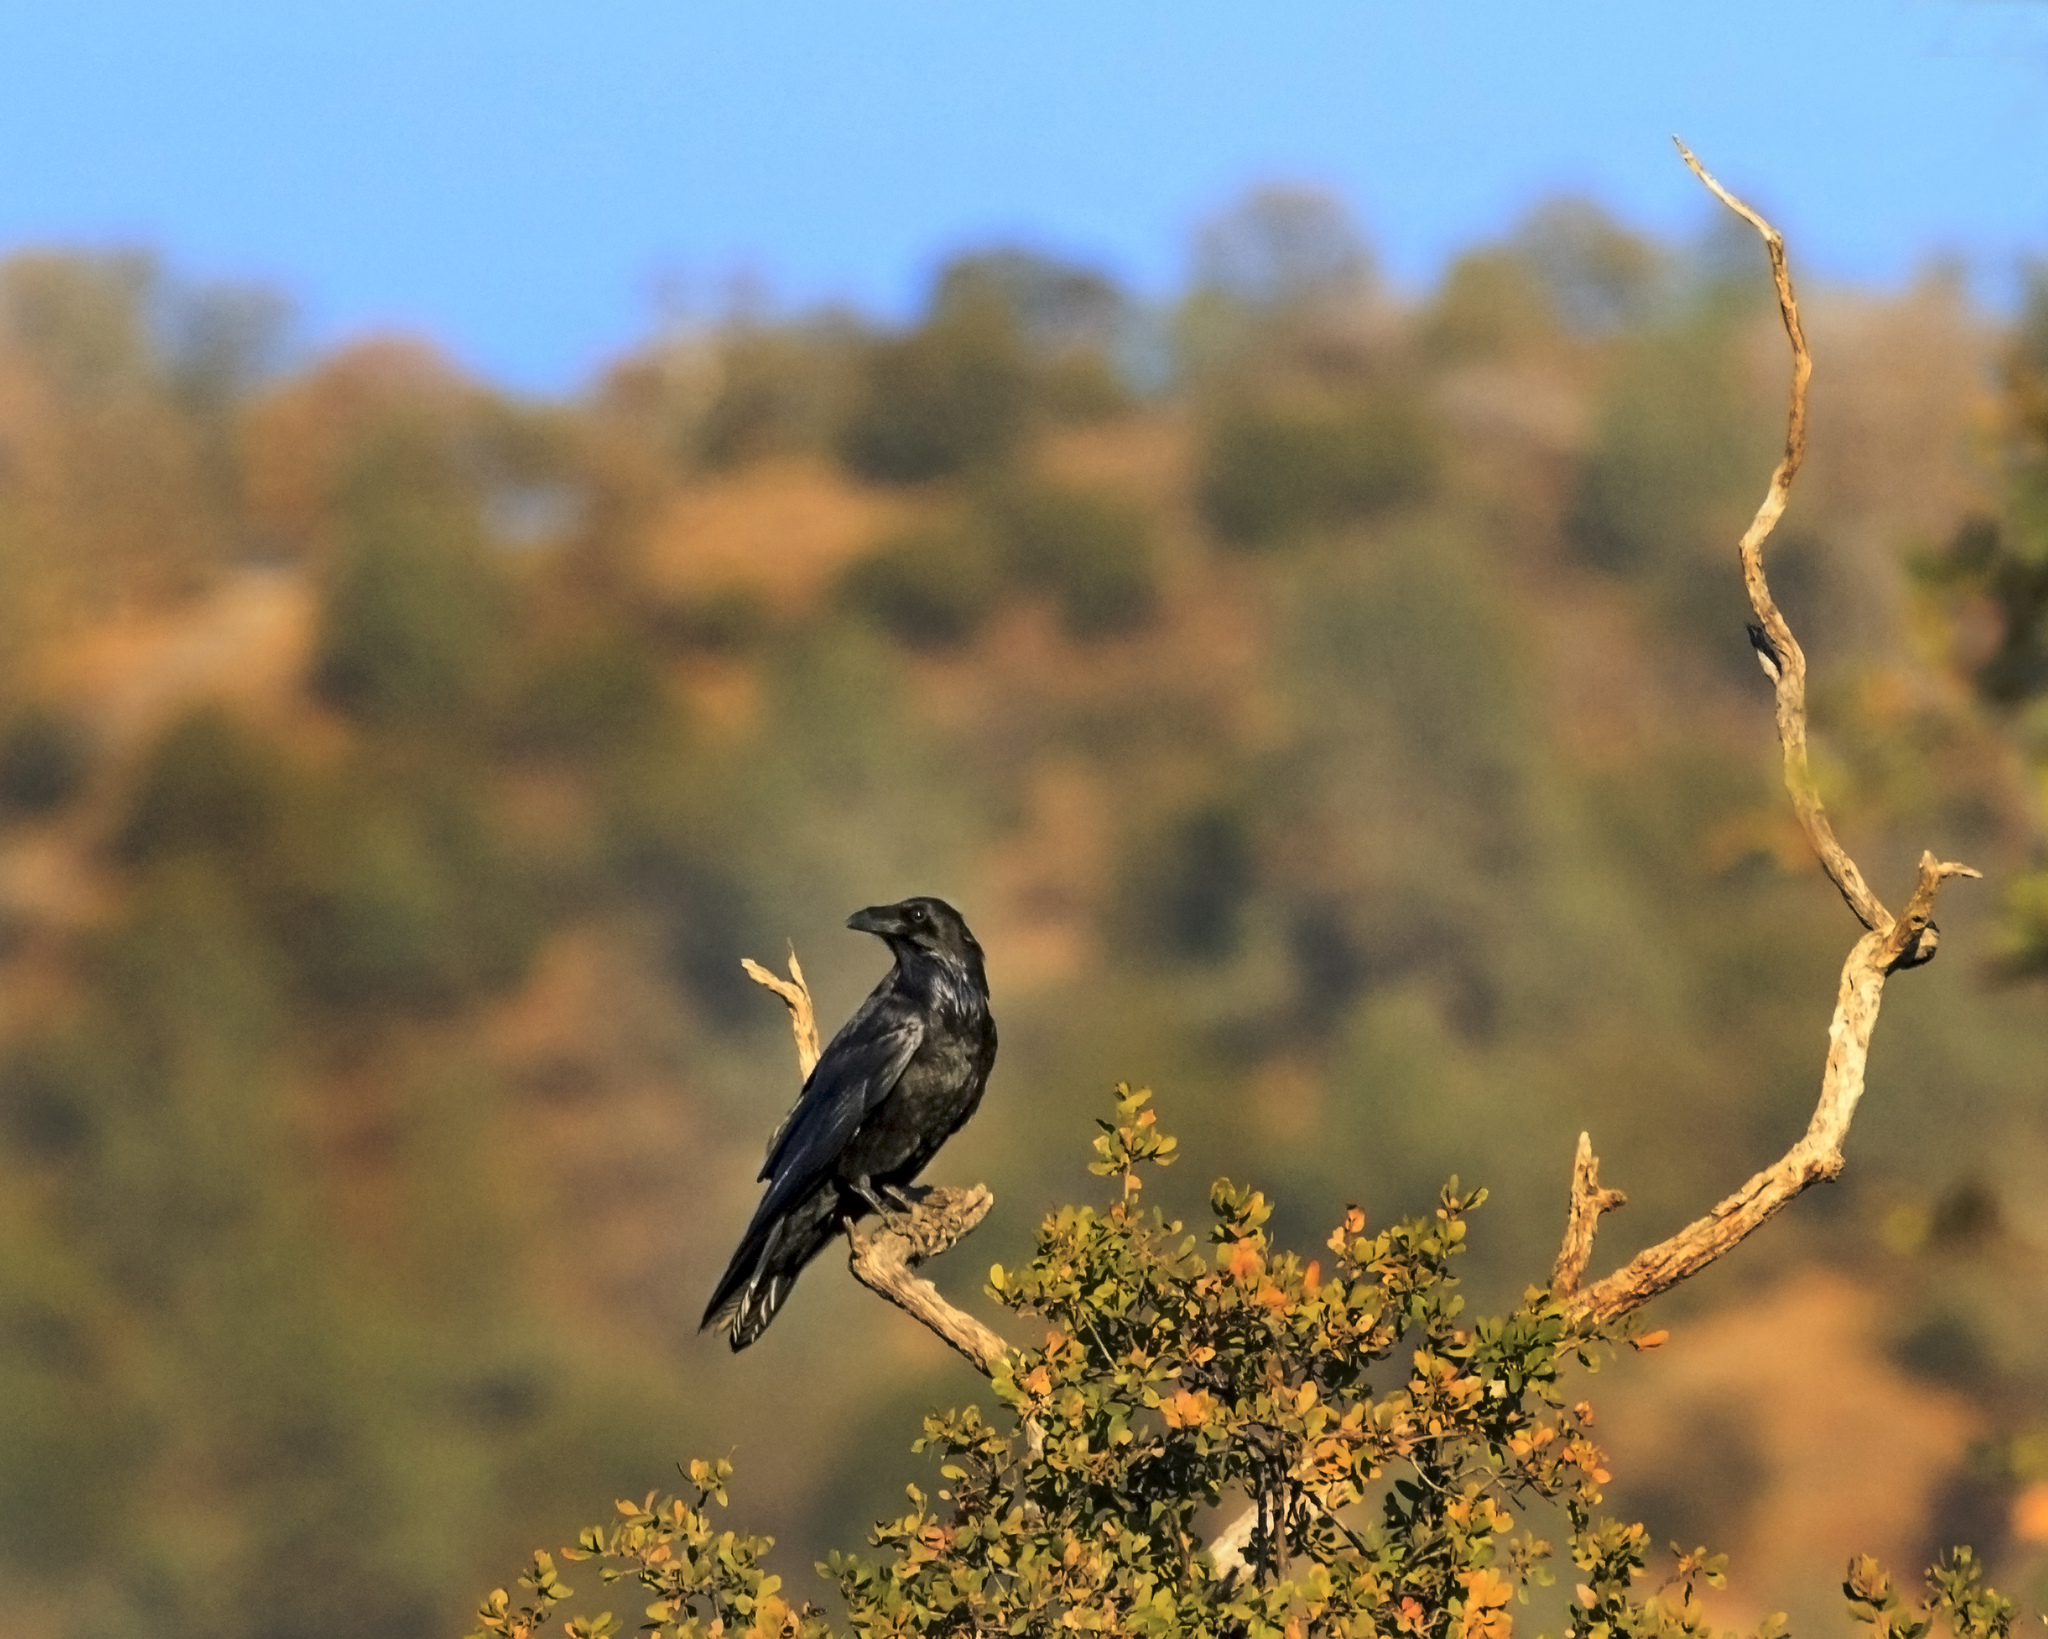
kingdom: Animalia
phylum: Chordata
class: Aves
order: Passeriformes
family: Corvidae
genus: Corvus
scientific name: Corvus corax
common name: Common raven
